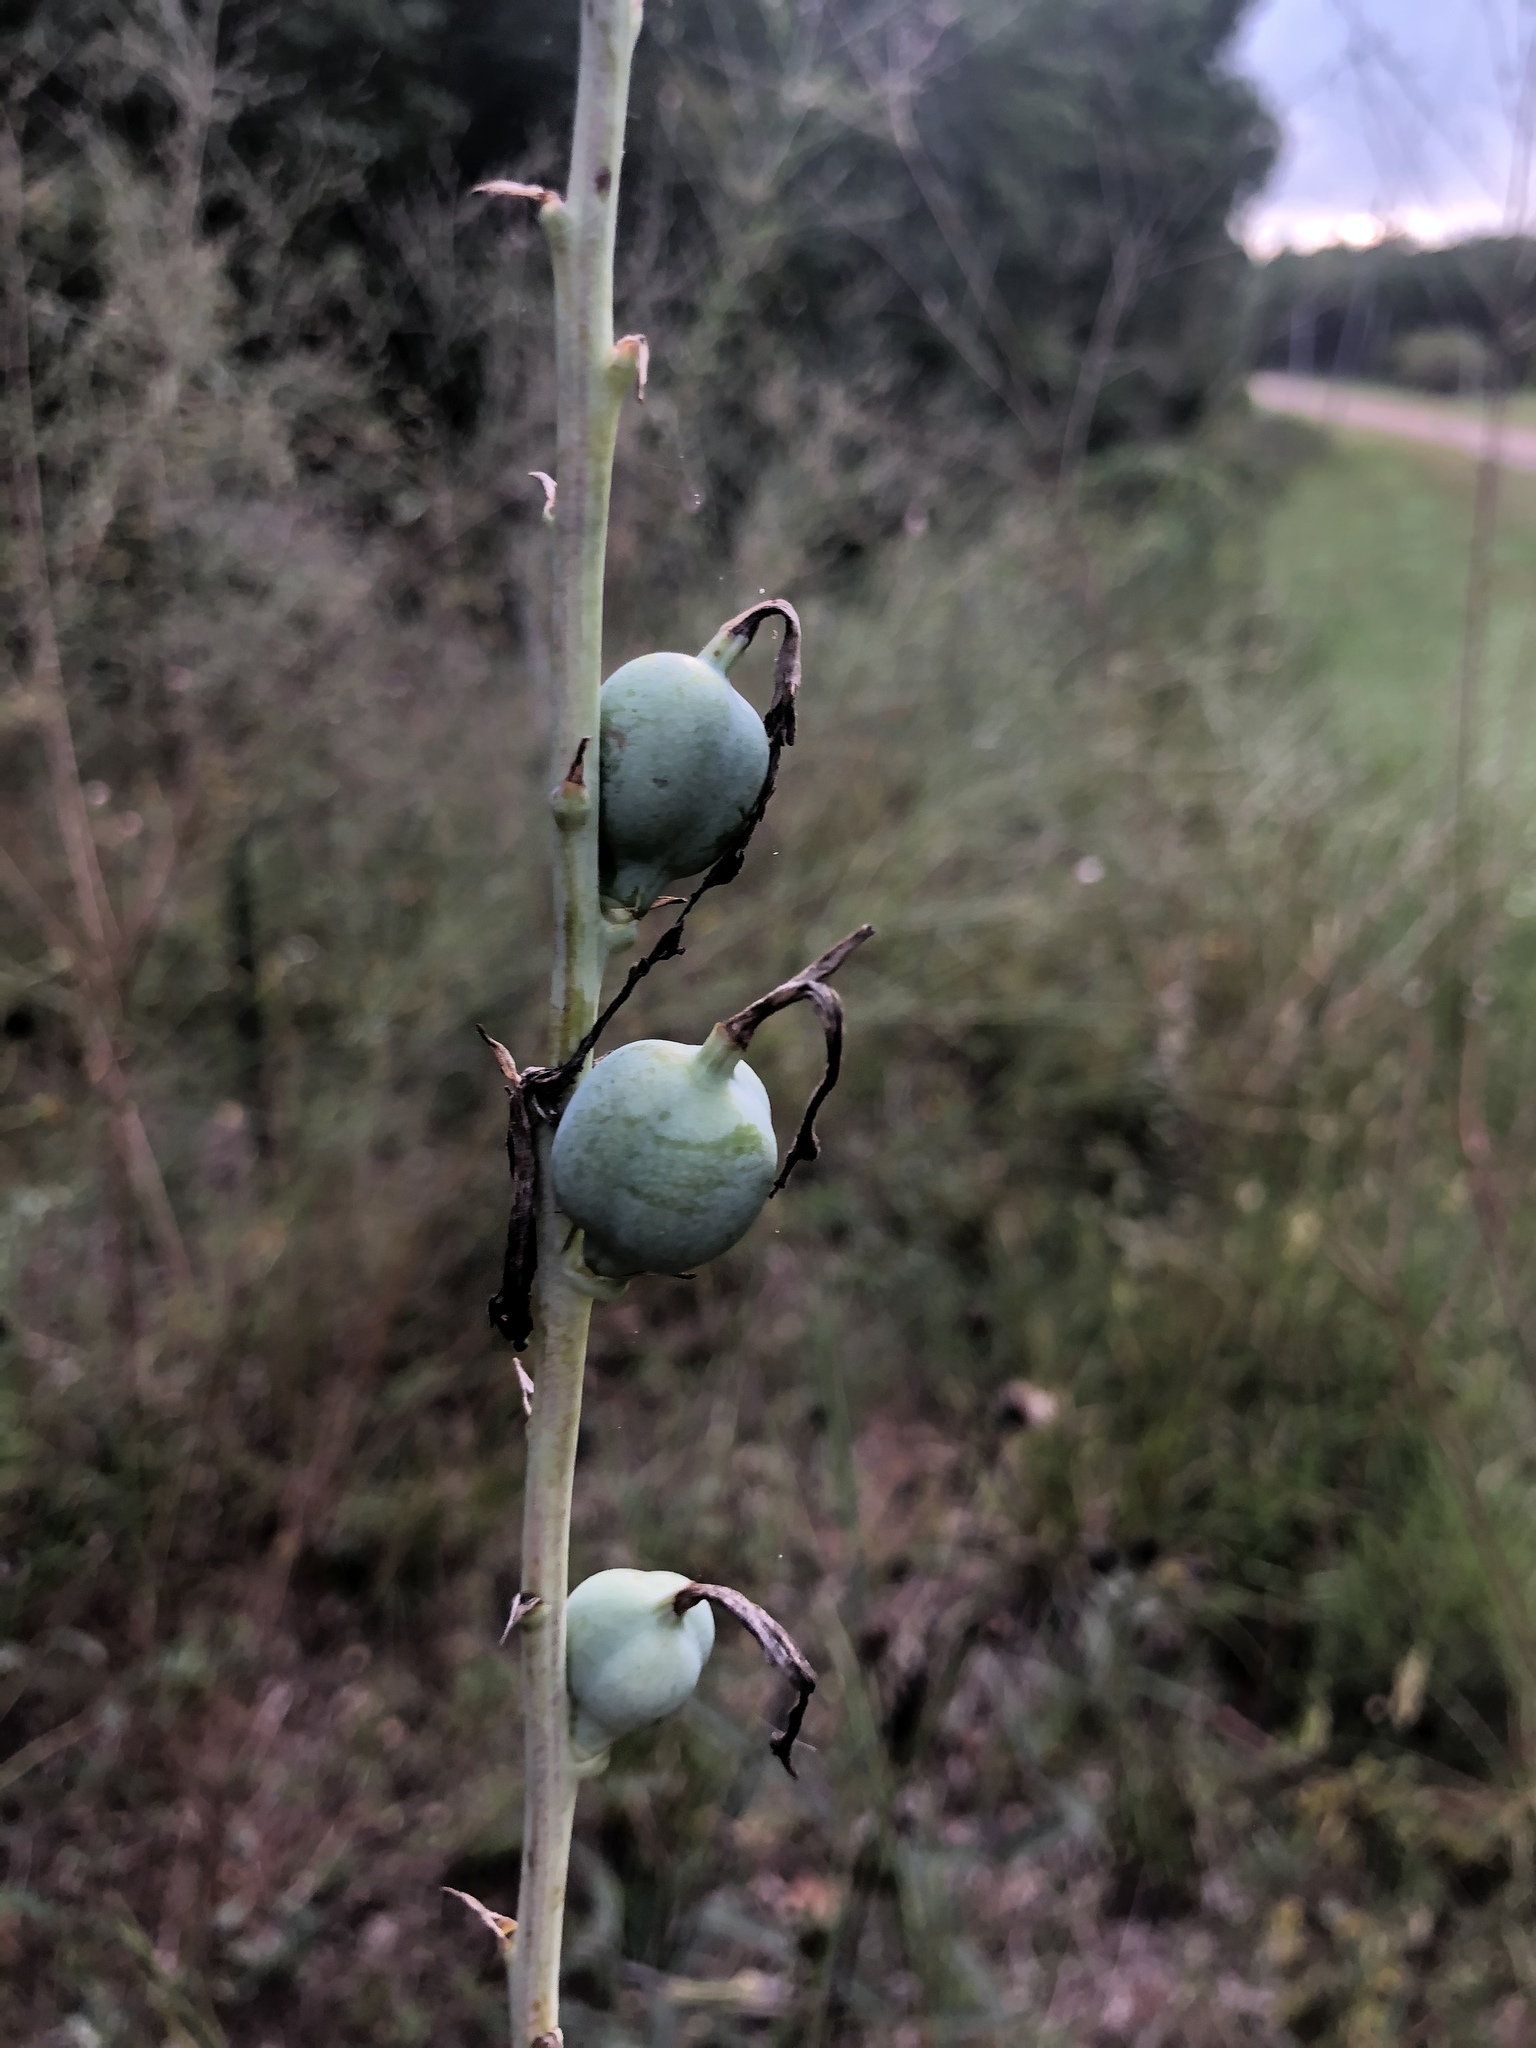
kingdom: Plantae
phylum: Tracheophyta
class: Liliopsida
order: Asparagales
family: Asparagaceae
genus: Agave
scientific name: Agave virginica
